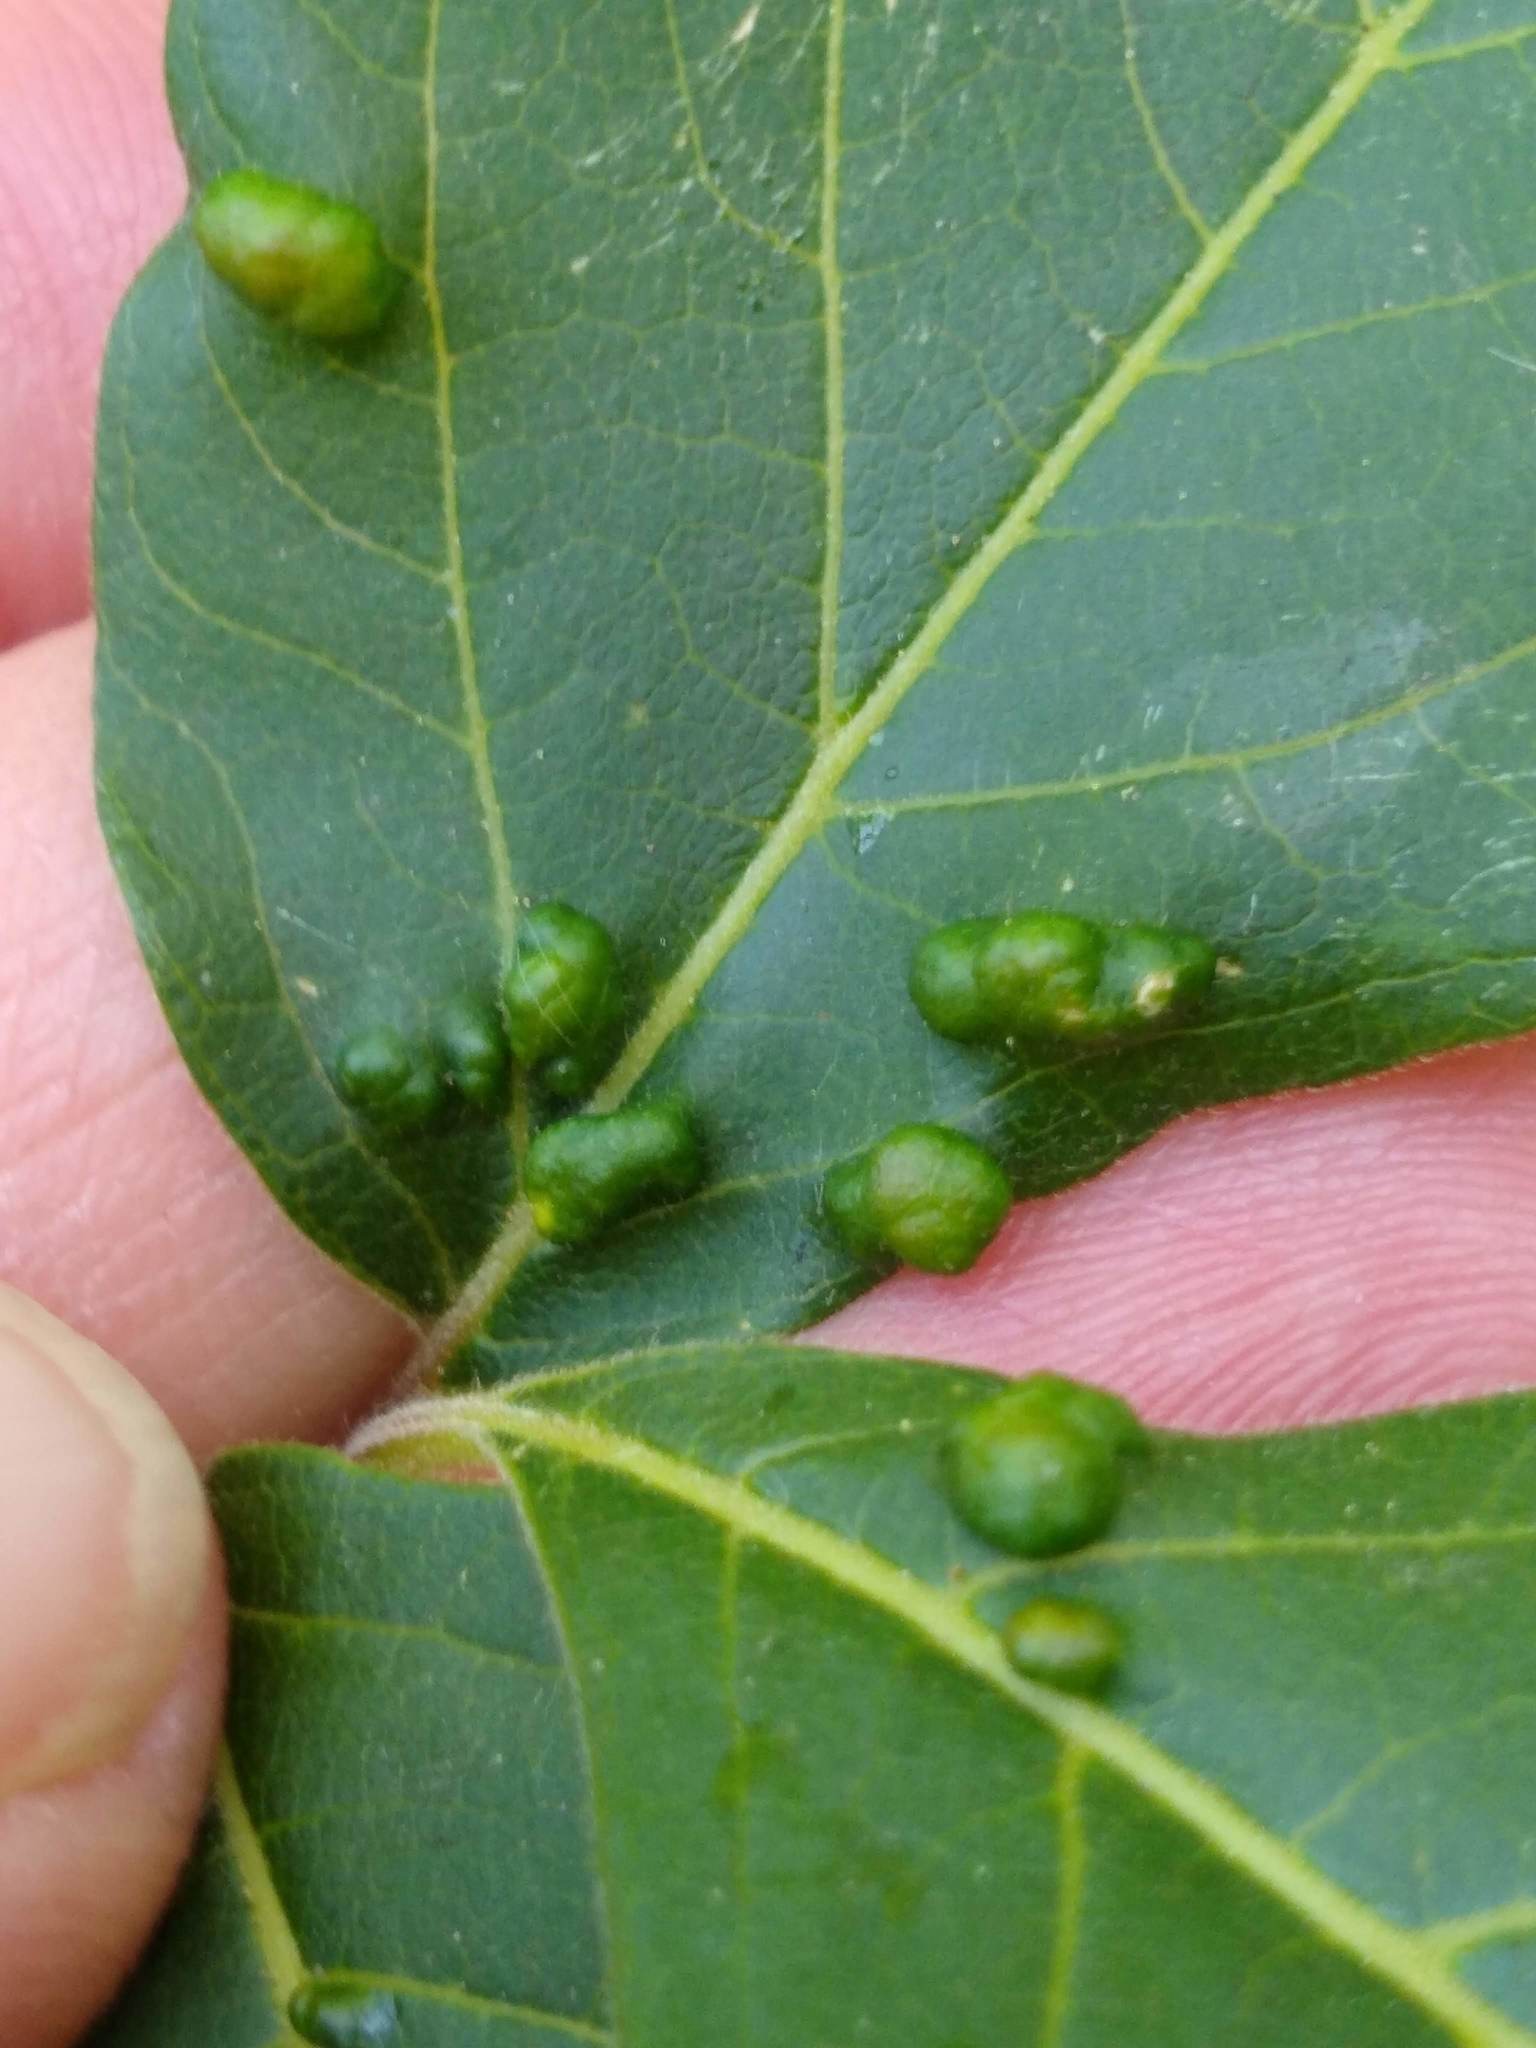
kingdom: Animalia
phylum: Arthropoda
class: Arachnida
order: Trombidiformes
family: Eriophyidae
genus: Aceria
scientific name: Aceria
